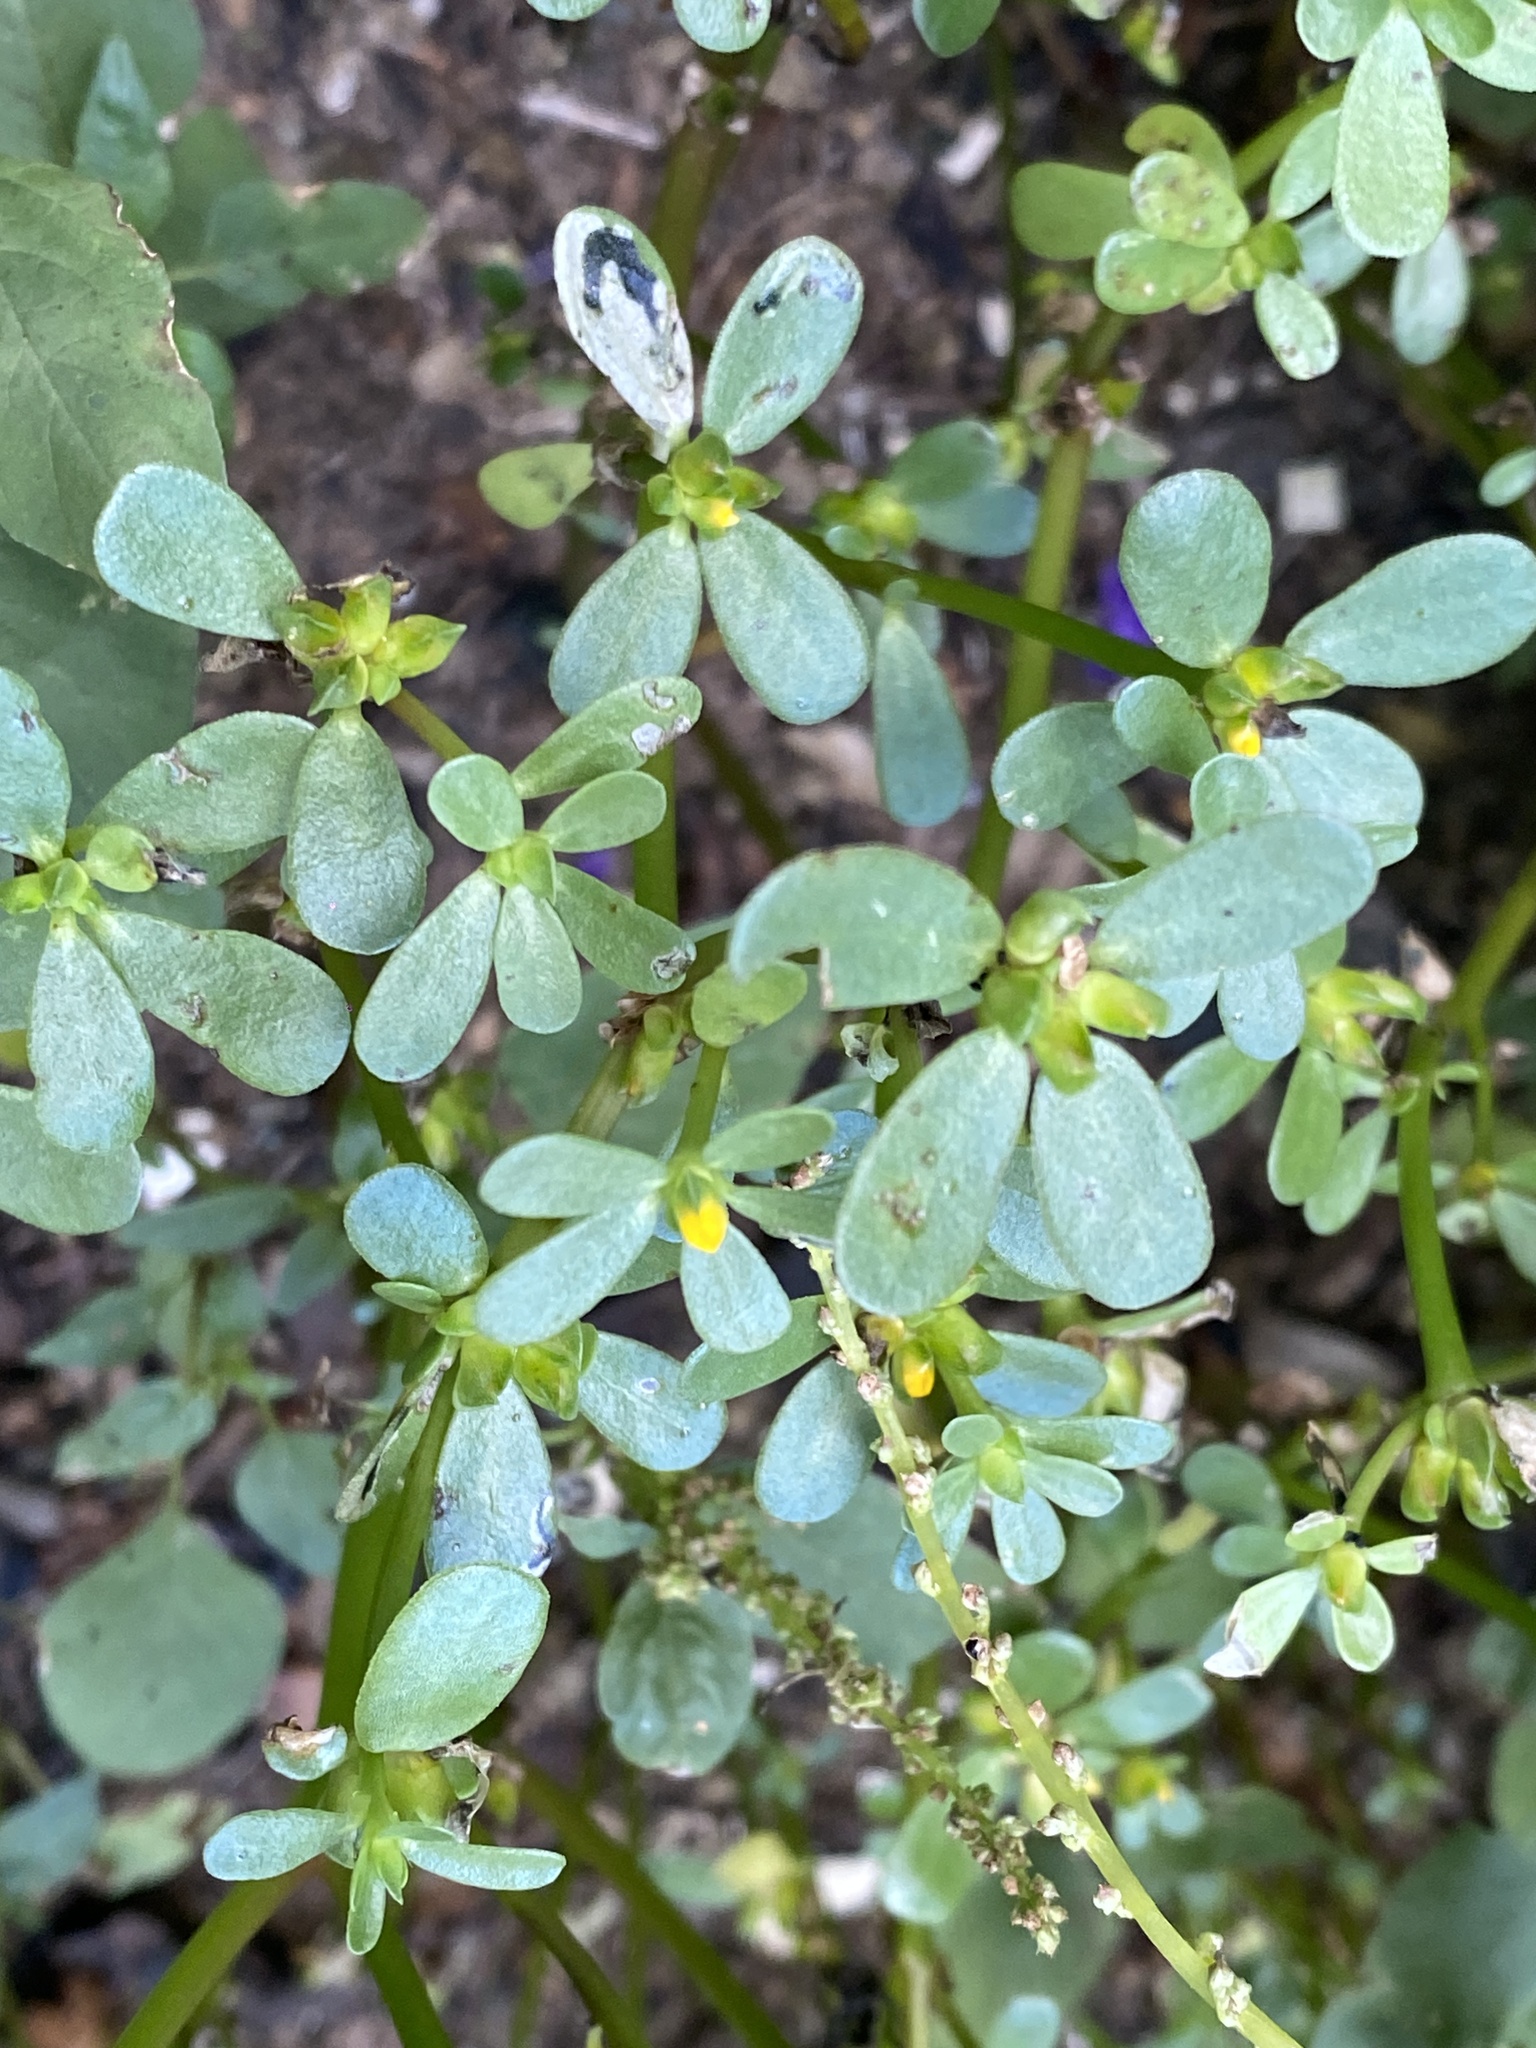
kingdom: Plantae
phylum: Tracheophyta
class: Magnoliopsida
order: Caryophyllales
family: Portulacaceae
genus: Portulaca
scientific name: Portulaca oleracea
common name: Common purslane
